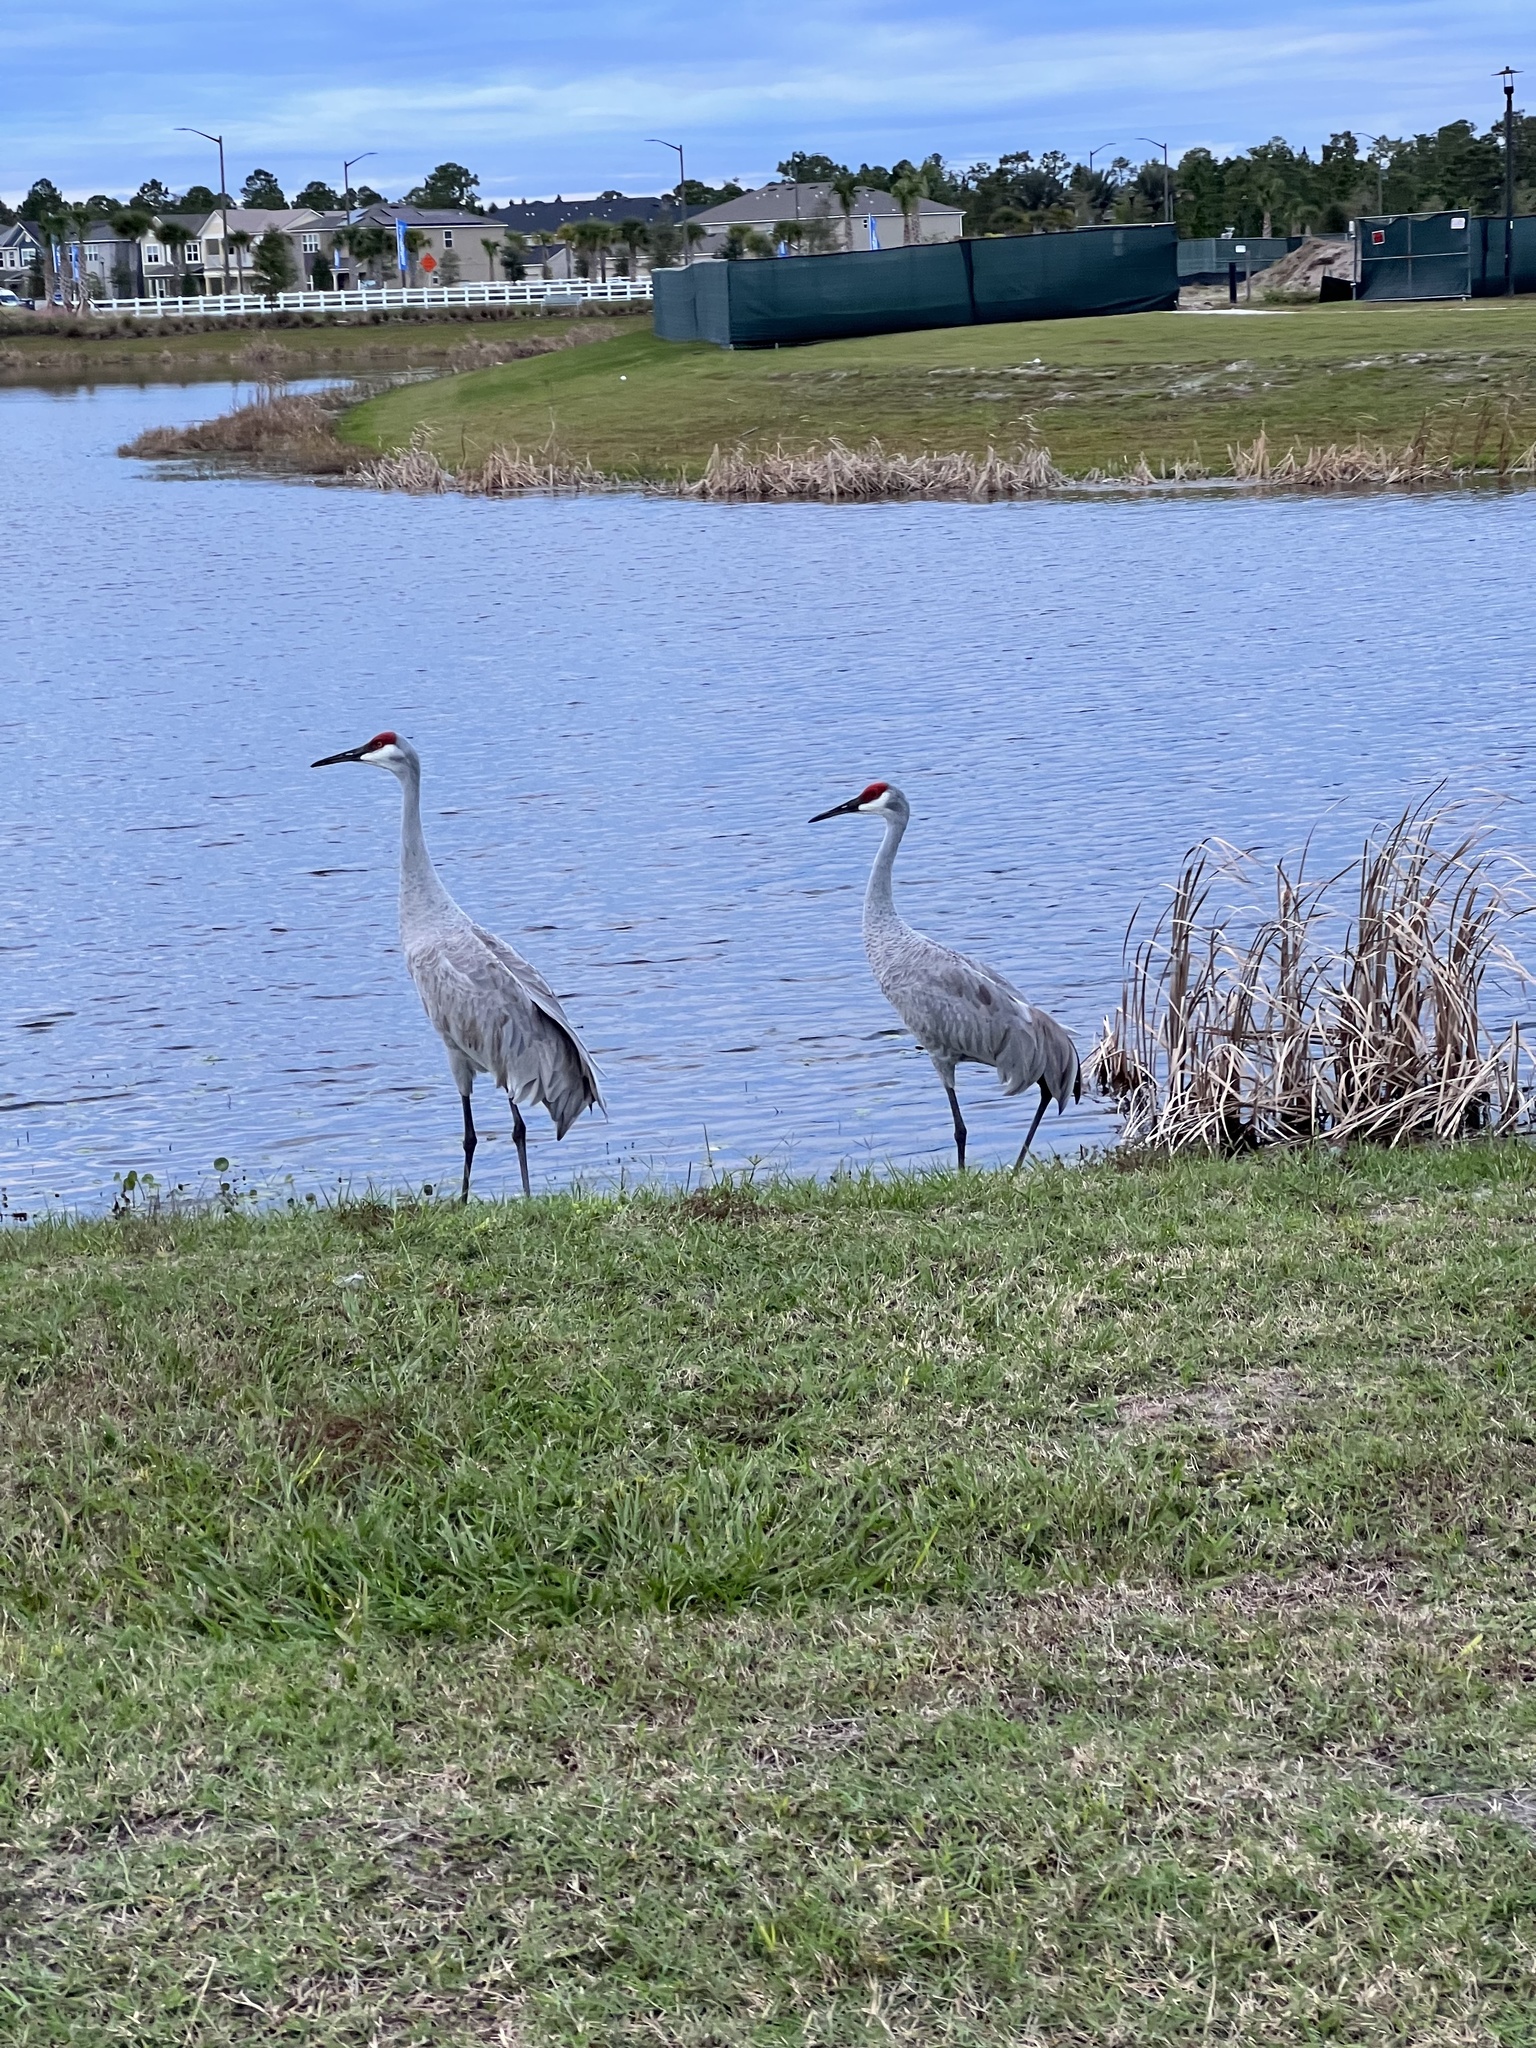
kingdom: Animalia
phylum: Chordata
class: Aves
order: Gruiformes
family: Gruidae
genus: Grus
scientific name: Grus canadensis
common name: Sandhill crane
